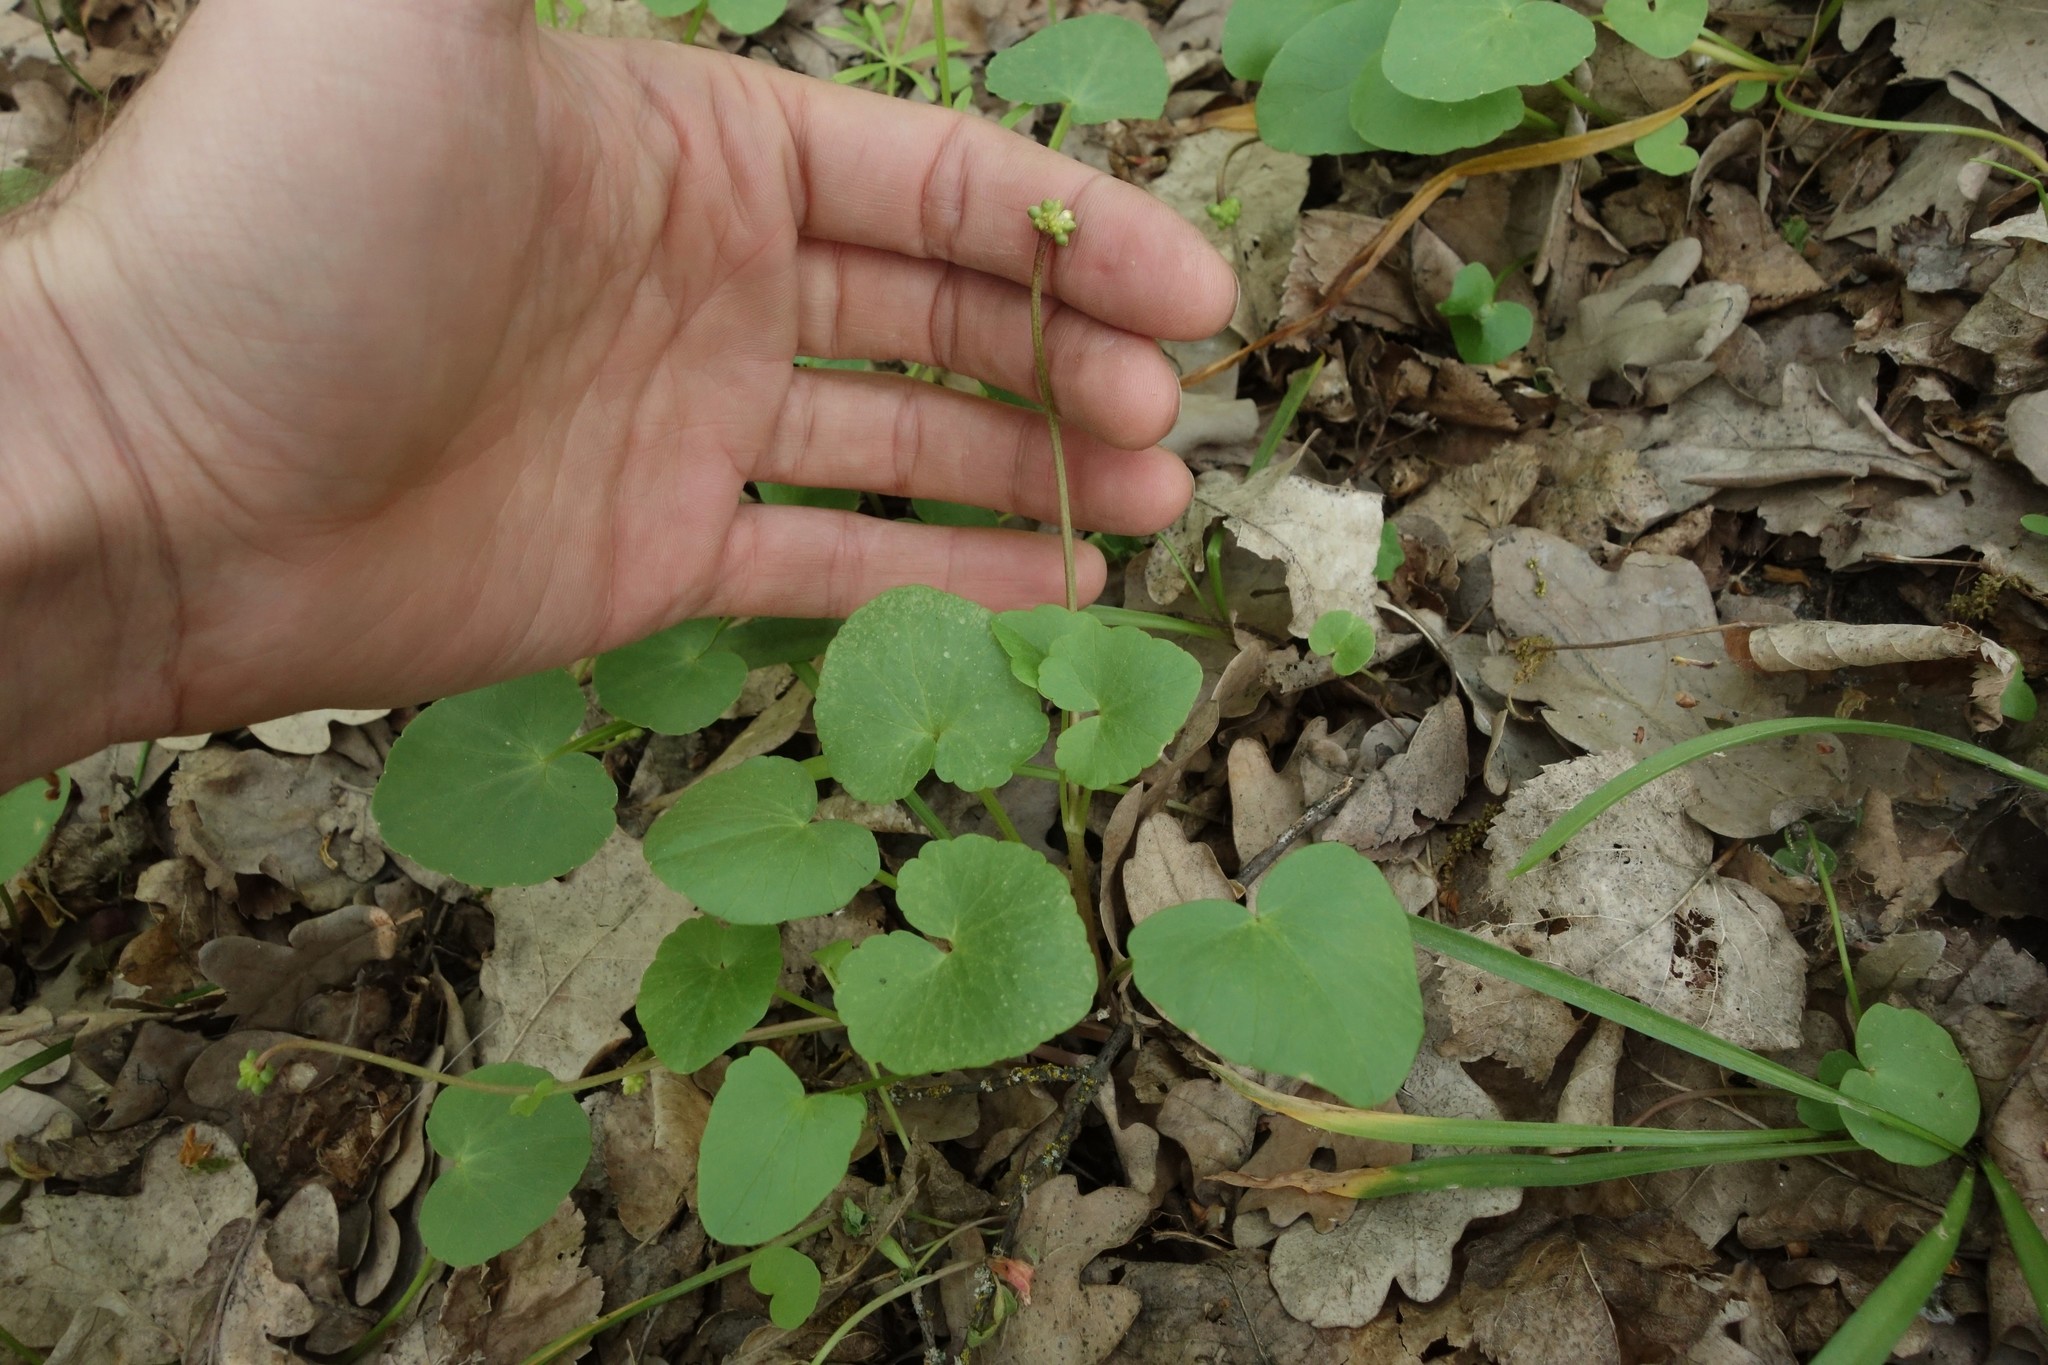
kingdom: Plantae
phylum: Tracheophyta
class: Magnoliopsida
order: Ranunculales
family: Ranunculaceae
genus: Ficaria
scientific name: Ficaria verna
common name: Lesser celandine
